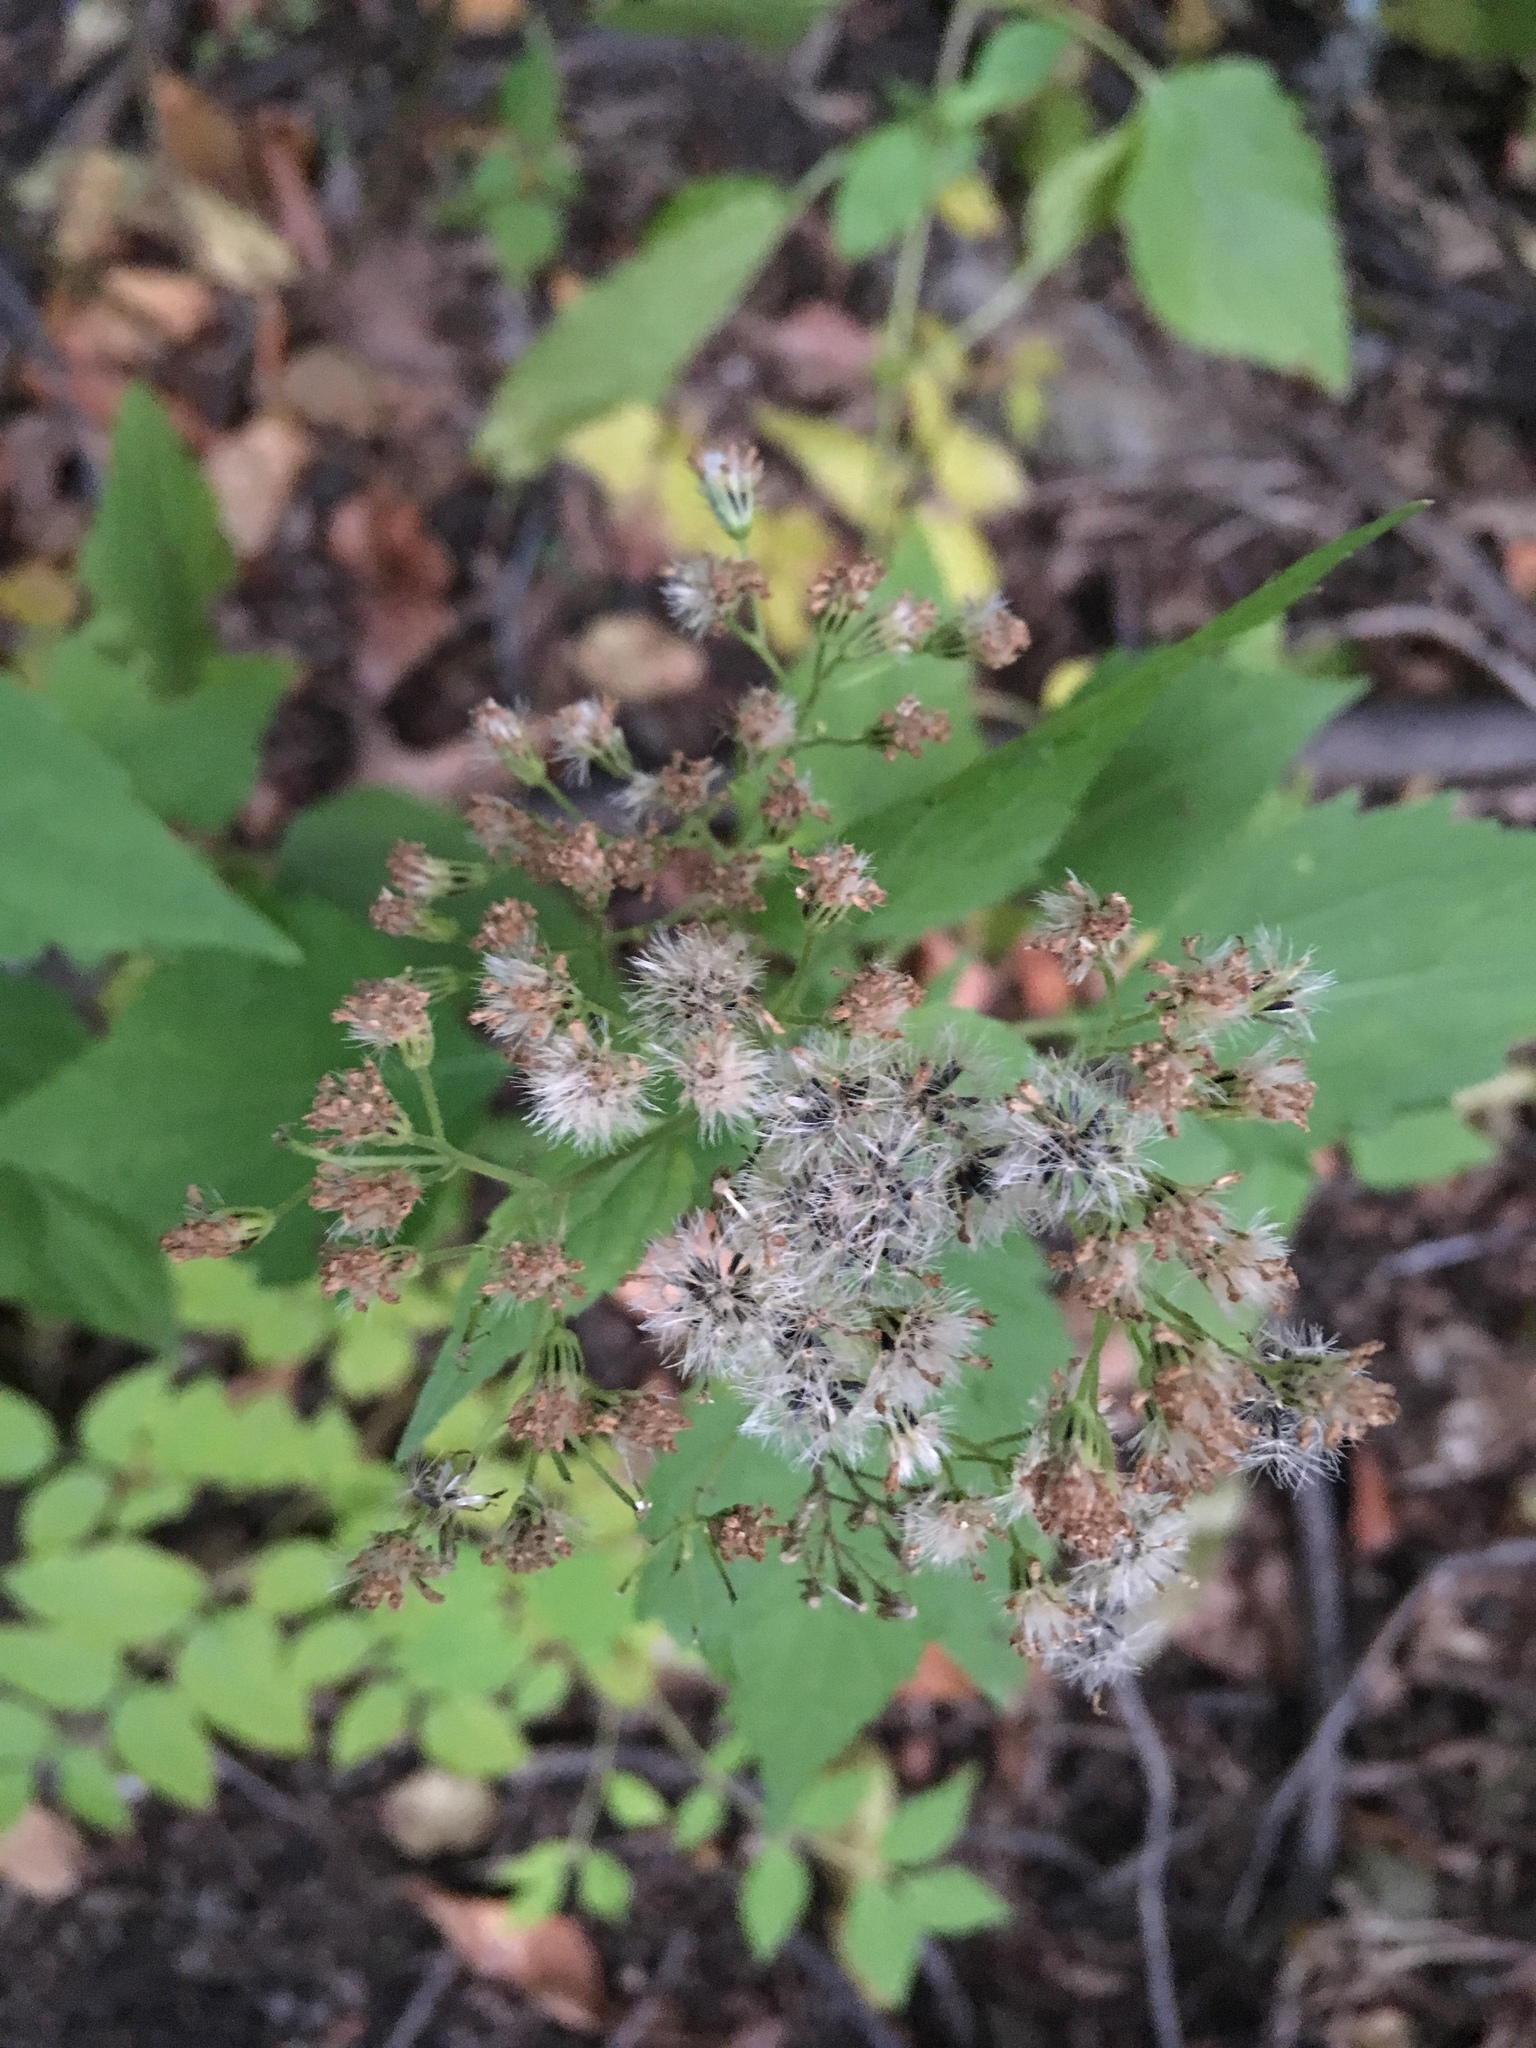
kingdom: Plantae
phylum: Tracheophyta
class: Magnoliopsida
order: Asterales
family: Asteraceae
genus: Ageratina
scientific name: Ageratina altissima
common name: White snakeroot
